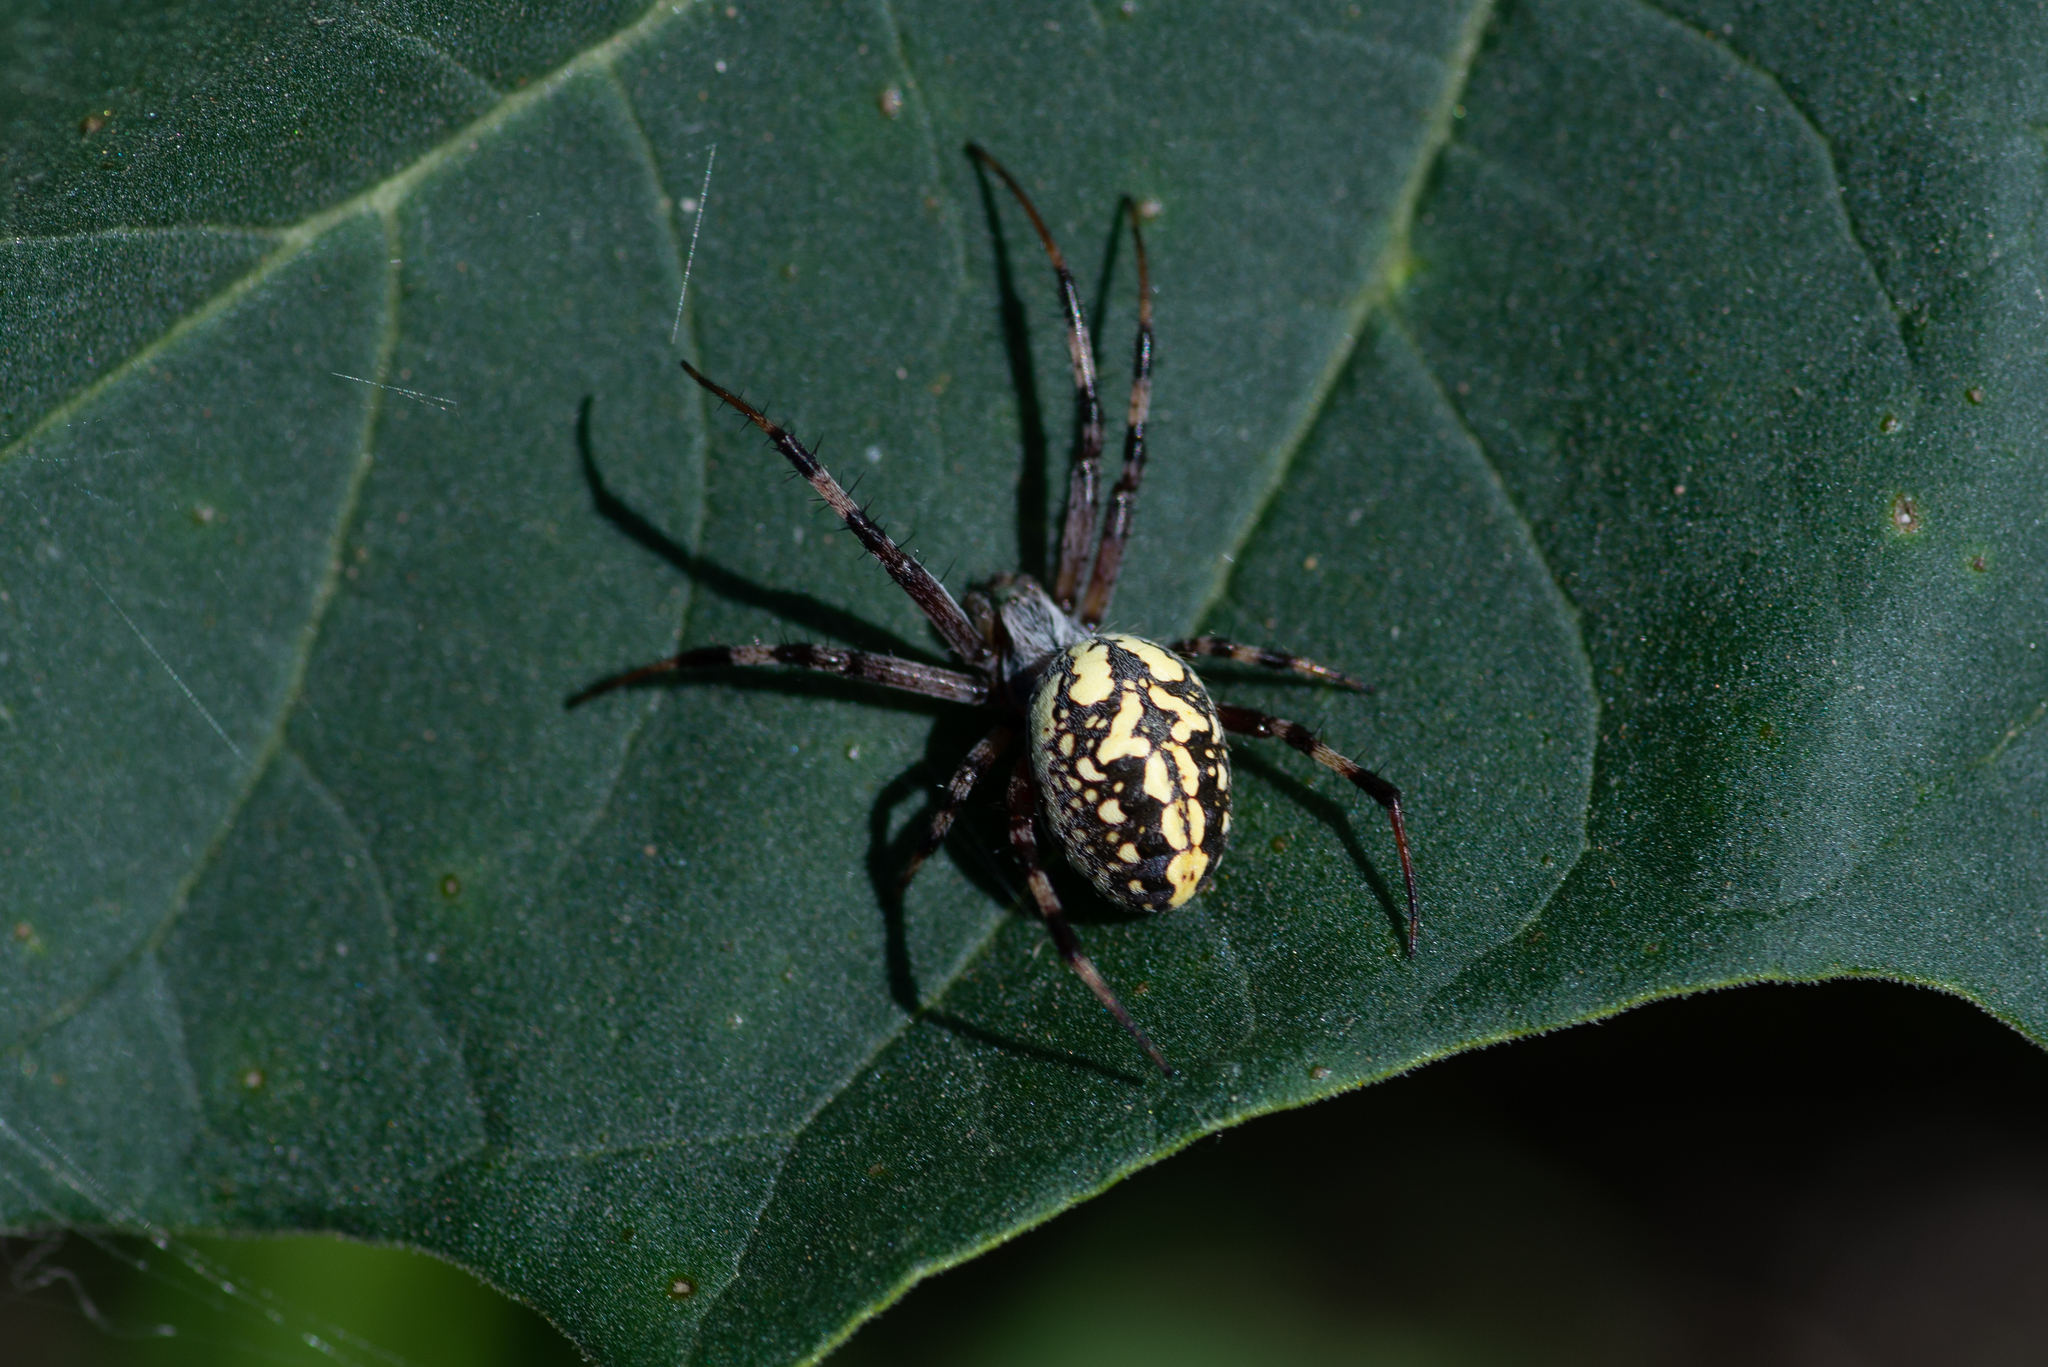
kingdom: Animalia
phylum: Arthropoda
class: Arachnida
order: Araneae
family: Araneidae
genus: Neoscona
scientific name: Neoscona oaxacensis
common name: Orb weavers
